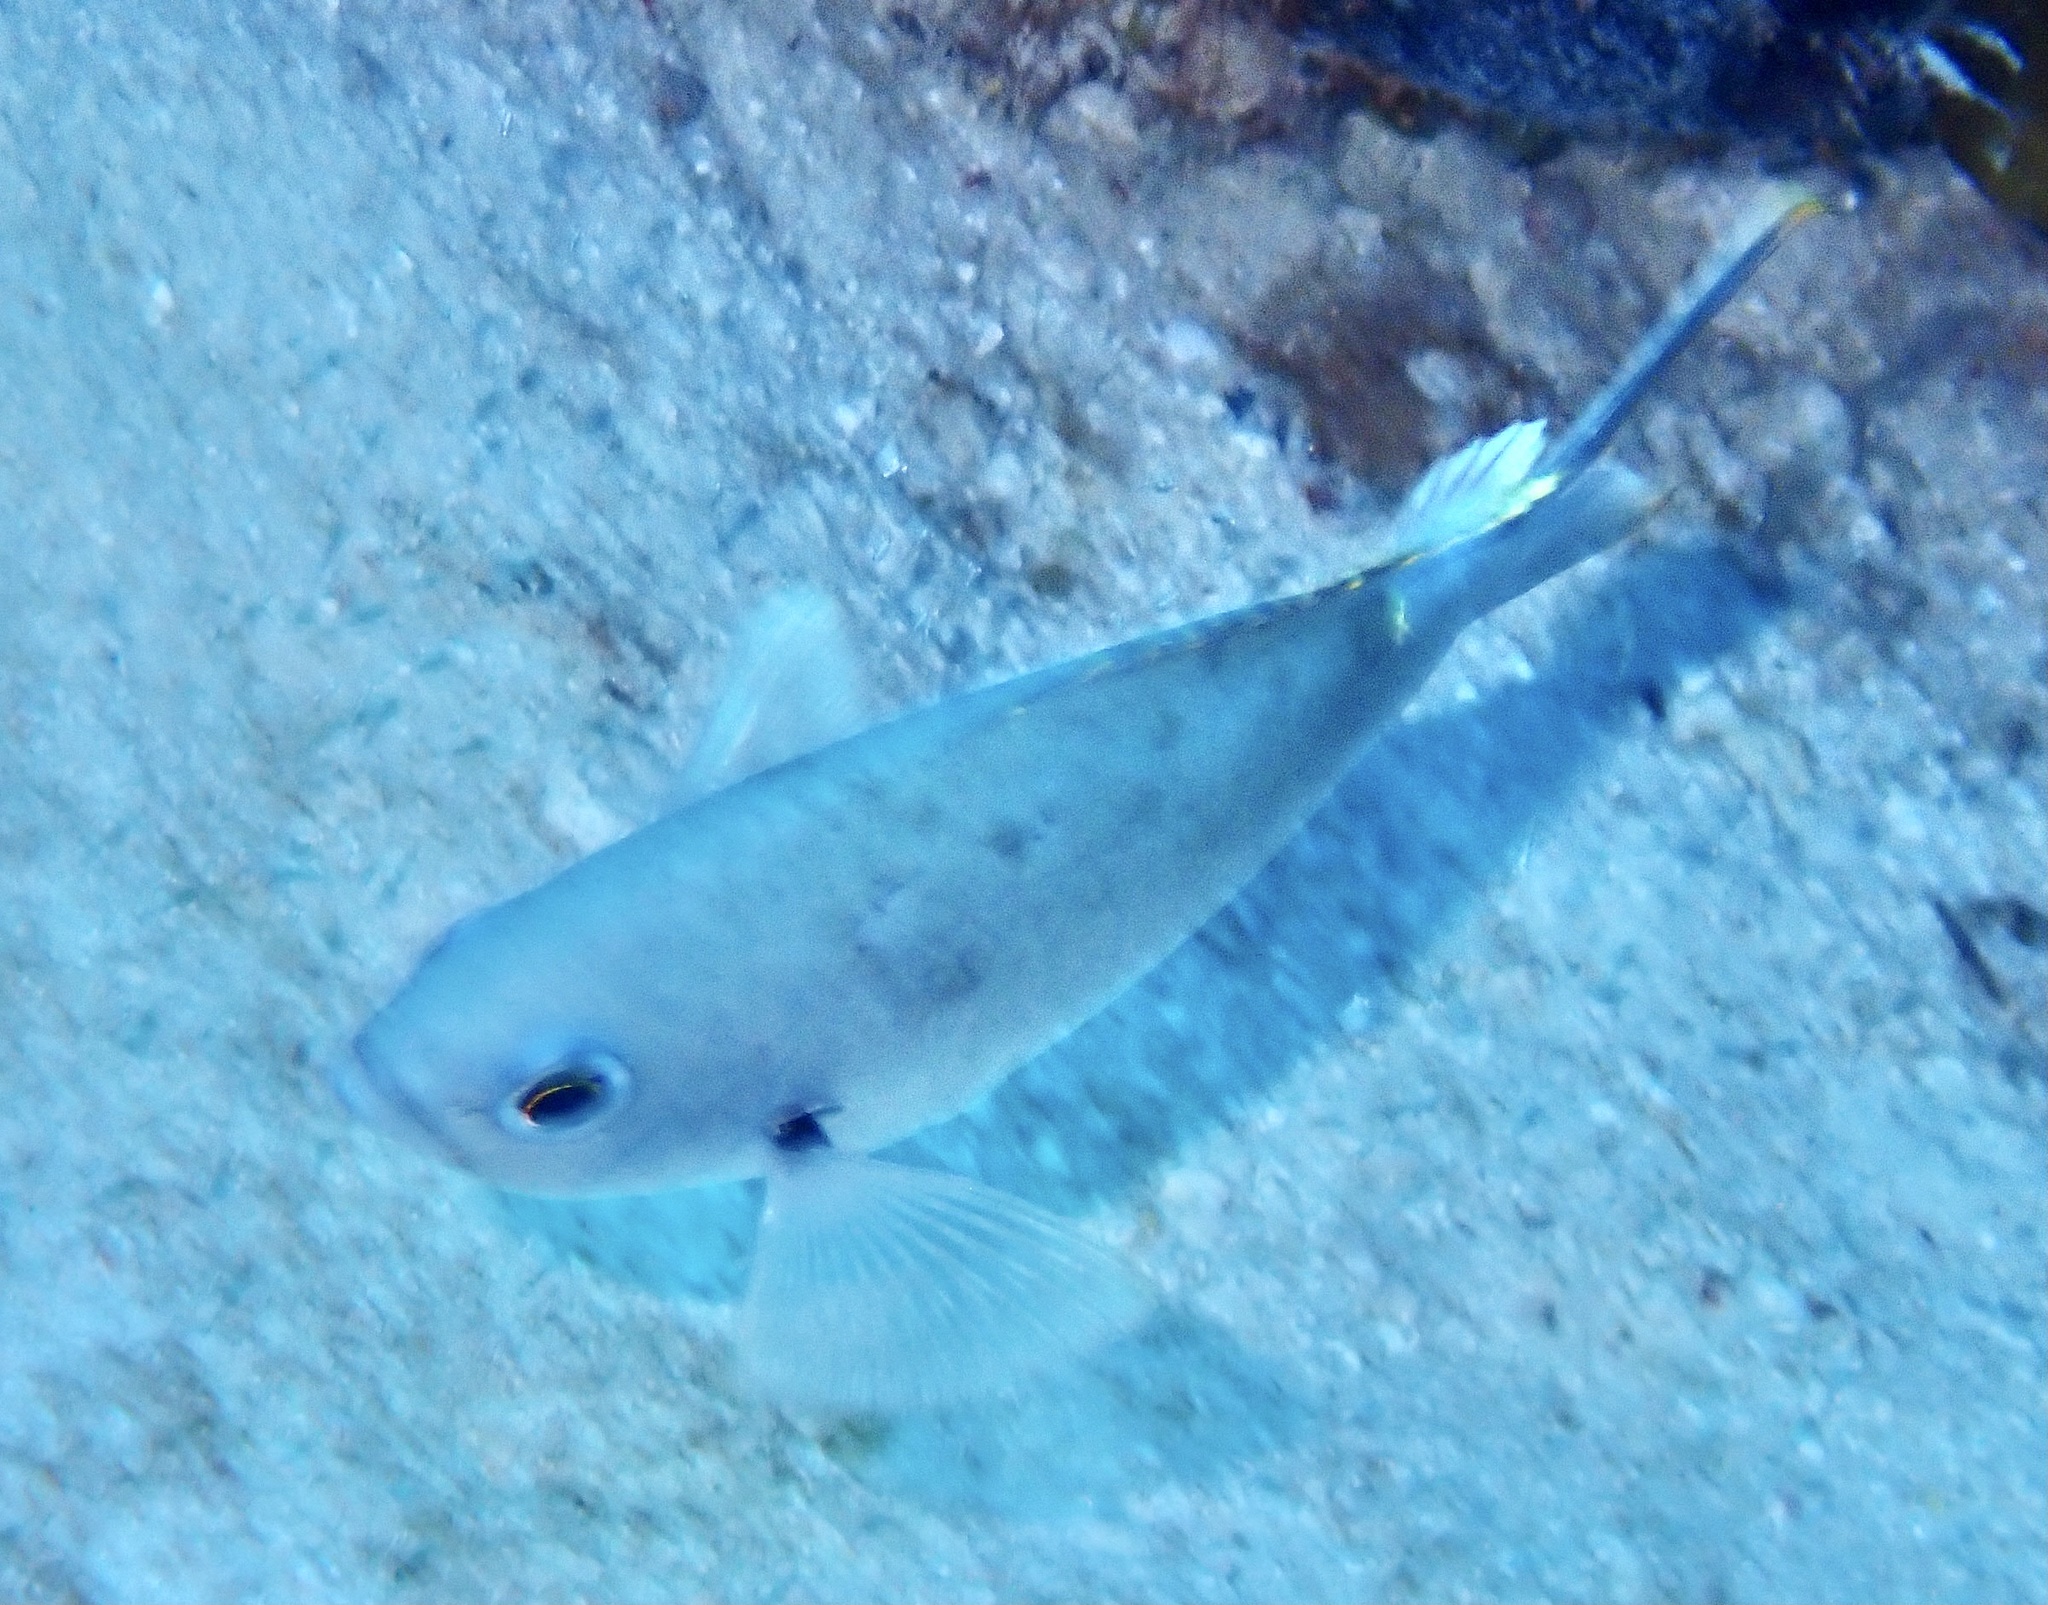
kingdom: Animalia
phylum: Chordata
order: Perciformes
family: Pomacentridae
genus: Chromis
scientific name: Chromis multilineata
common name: Brown chromis
